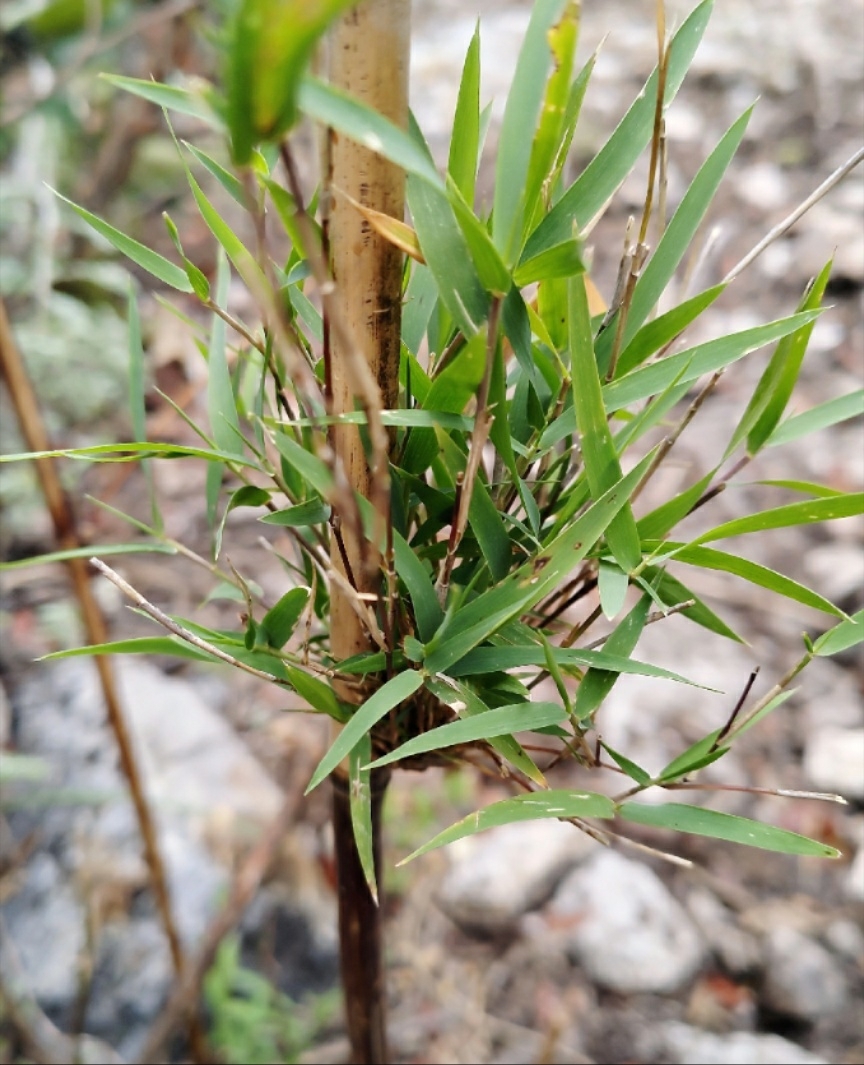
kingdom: Plantae
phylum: Tracheophyta
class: Liliopsida
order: Poales
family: Poaceae
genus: Otatea
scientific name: Otatea acuminata
